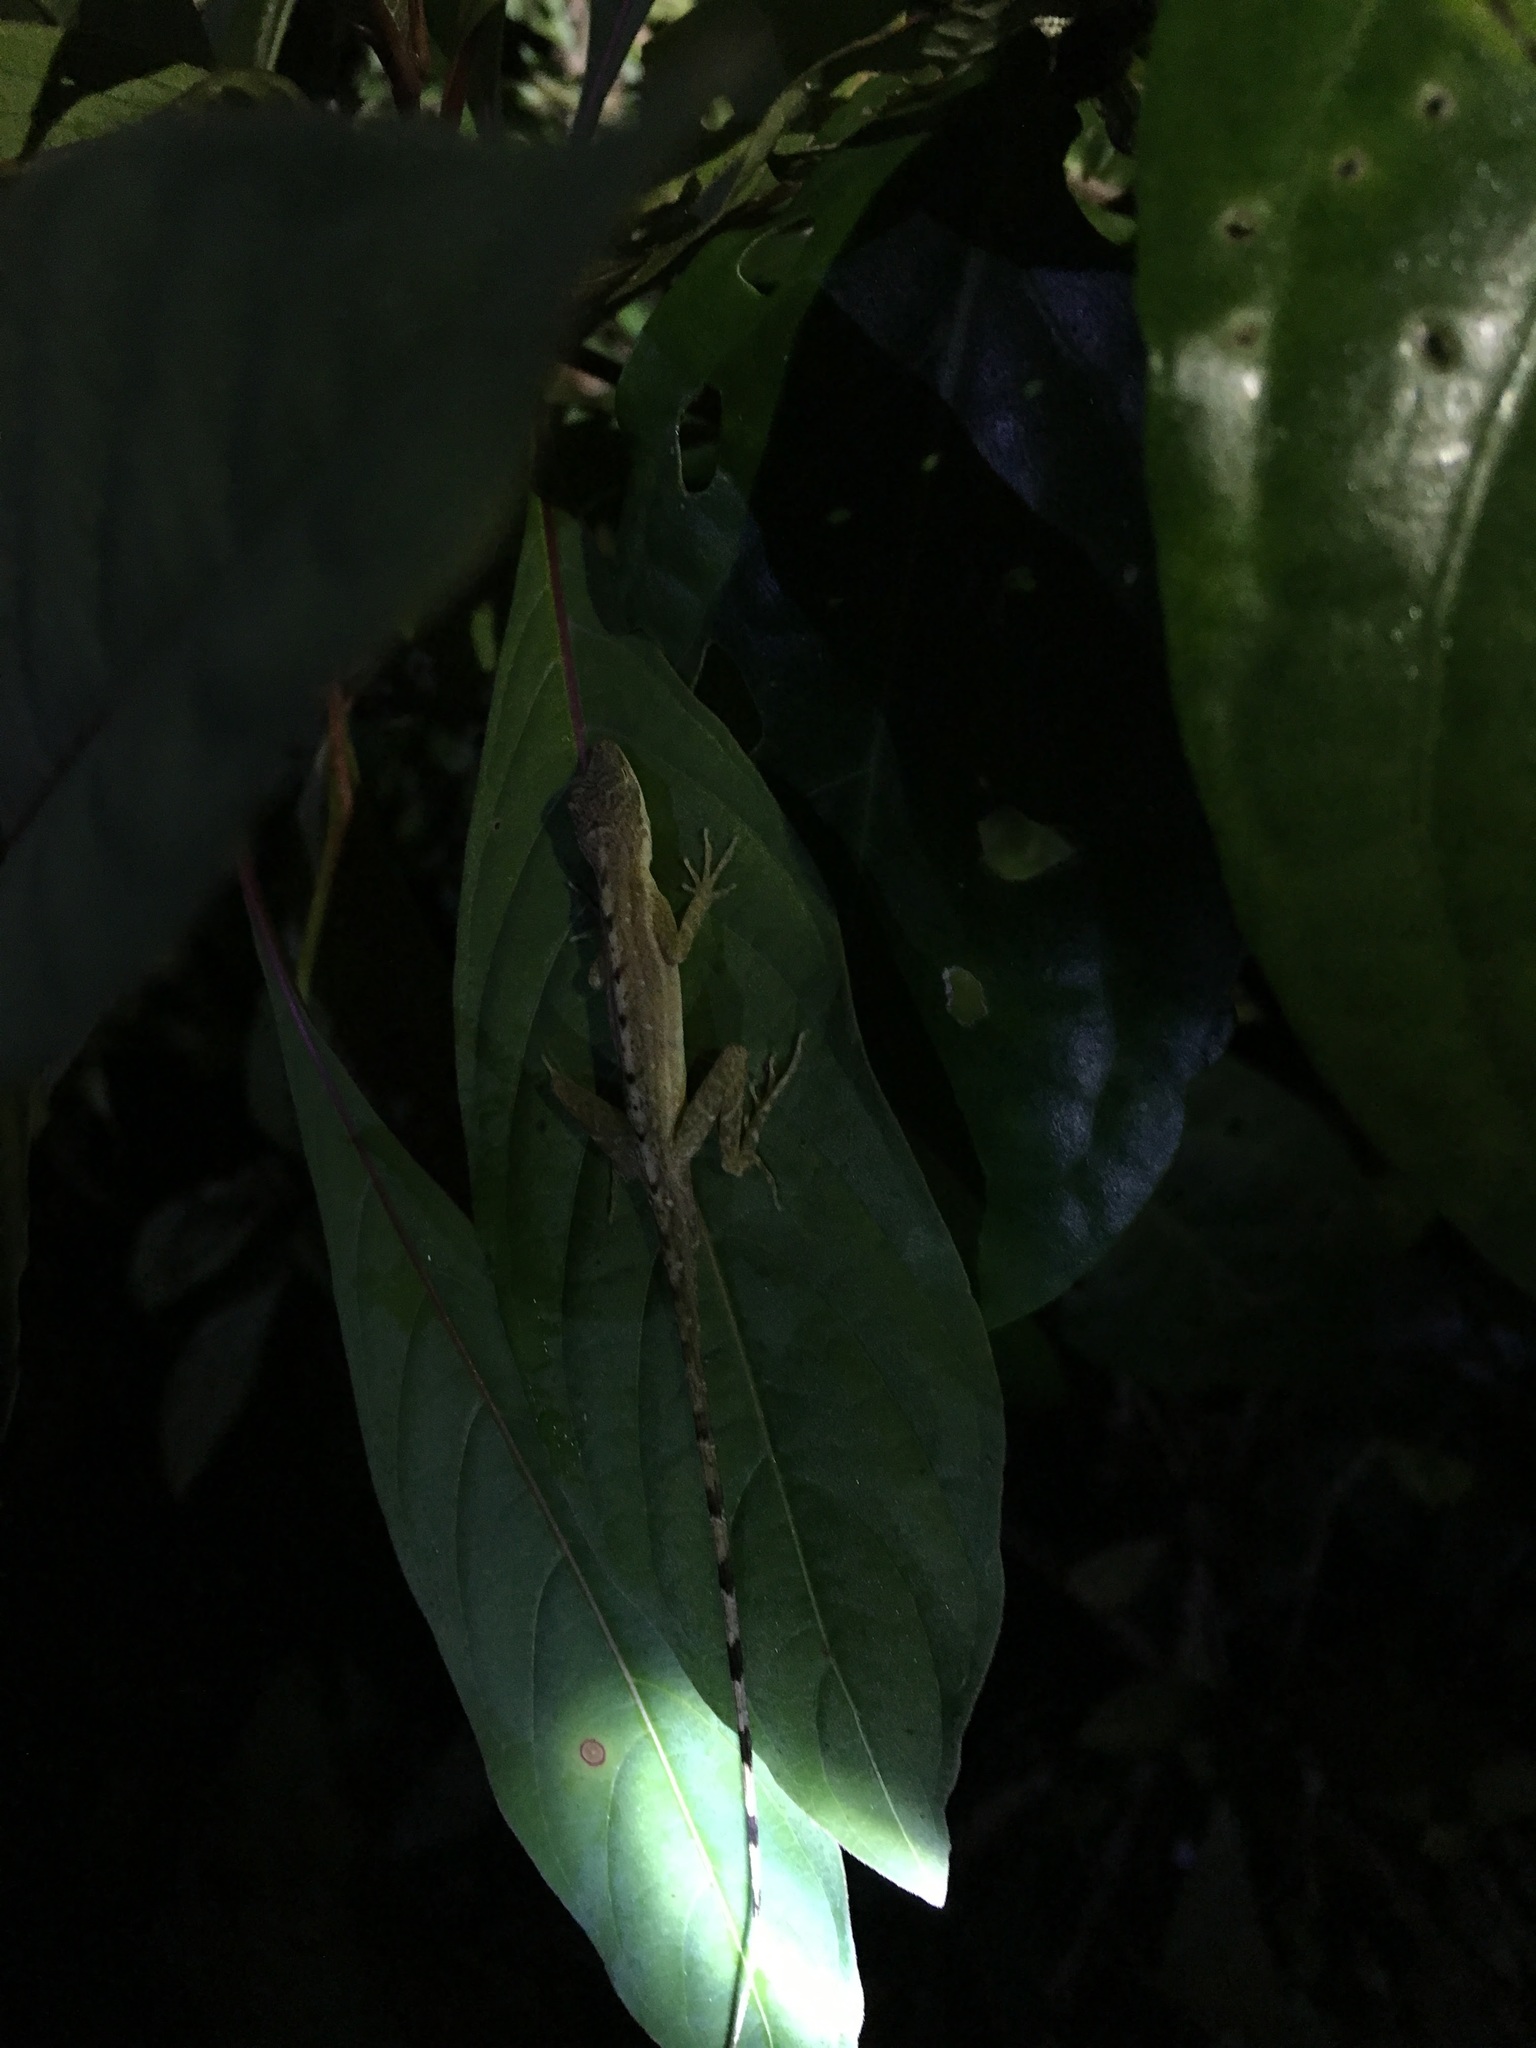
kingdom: Animalia
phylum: Chordata
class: Squamata
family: Dactyloidae
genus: Anolis
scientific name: Anolis cryptolimifrons
